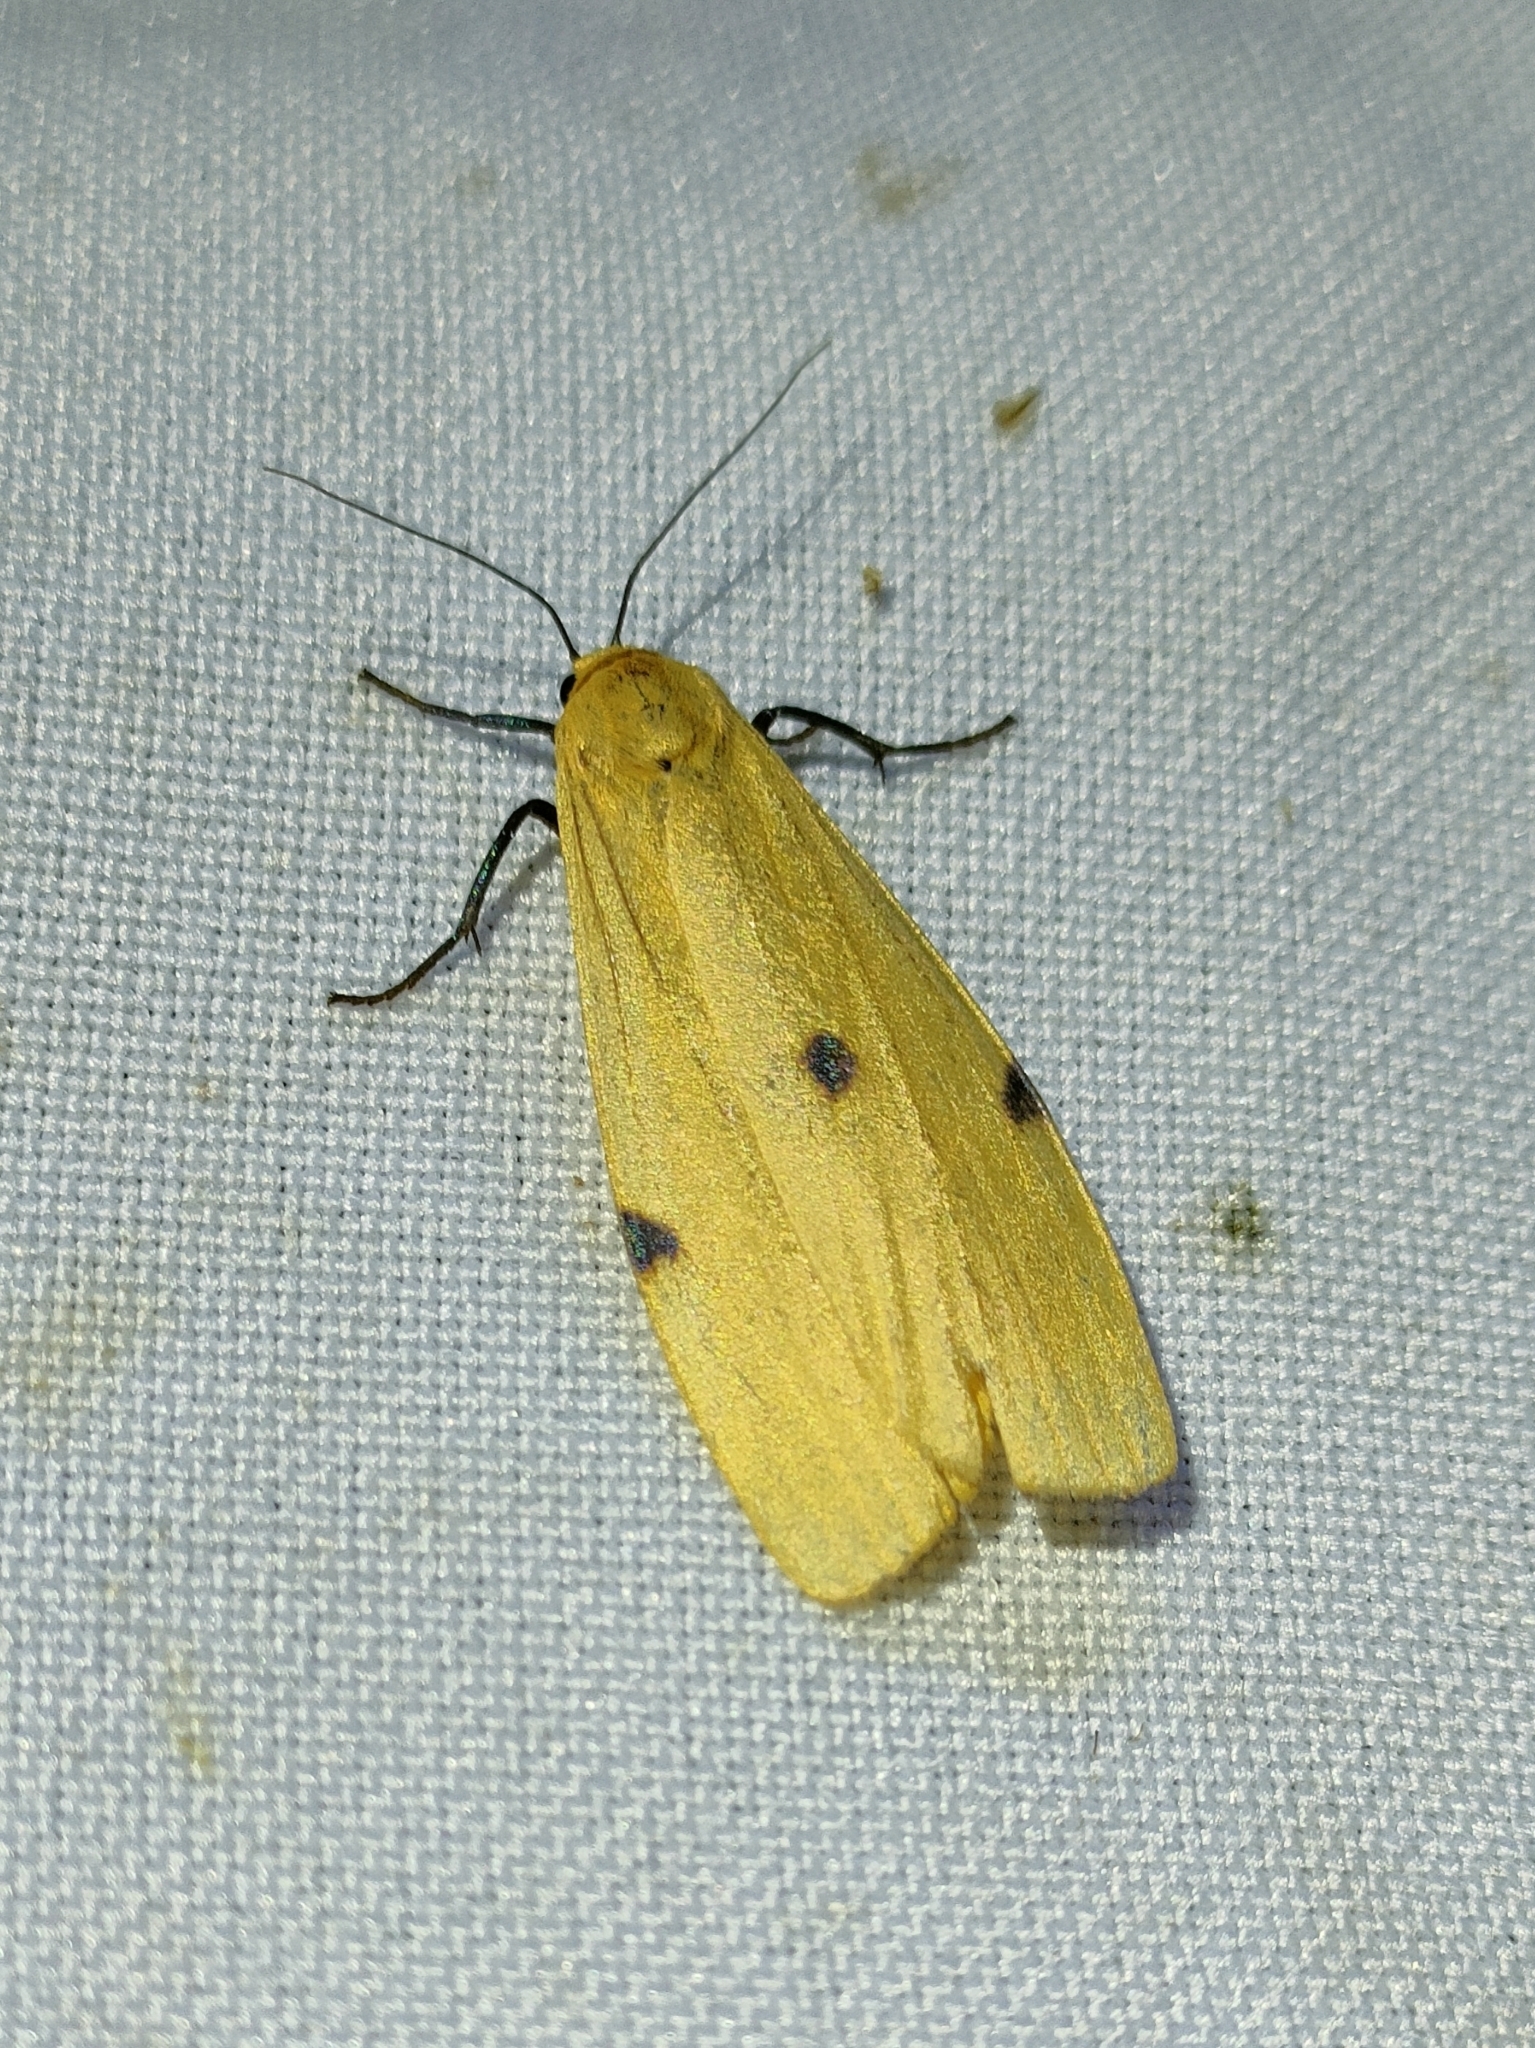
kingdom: Animalia
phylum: Arthropoda
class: Insecta
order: Lepidoptera
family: Erebidae
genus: Lithosia
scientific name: Lithosia quadra
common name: Four-spotted footman
